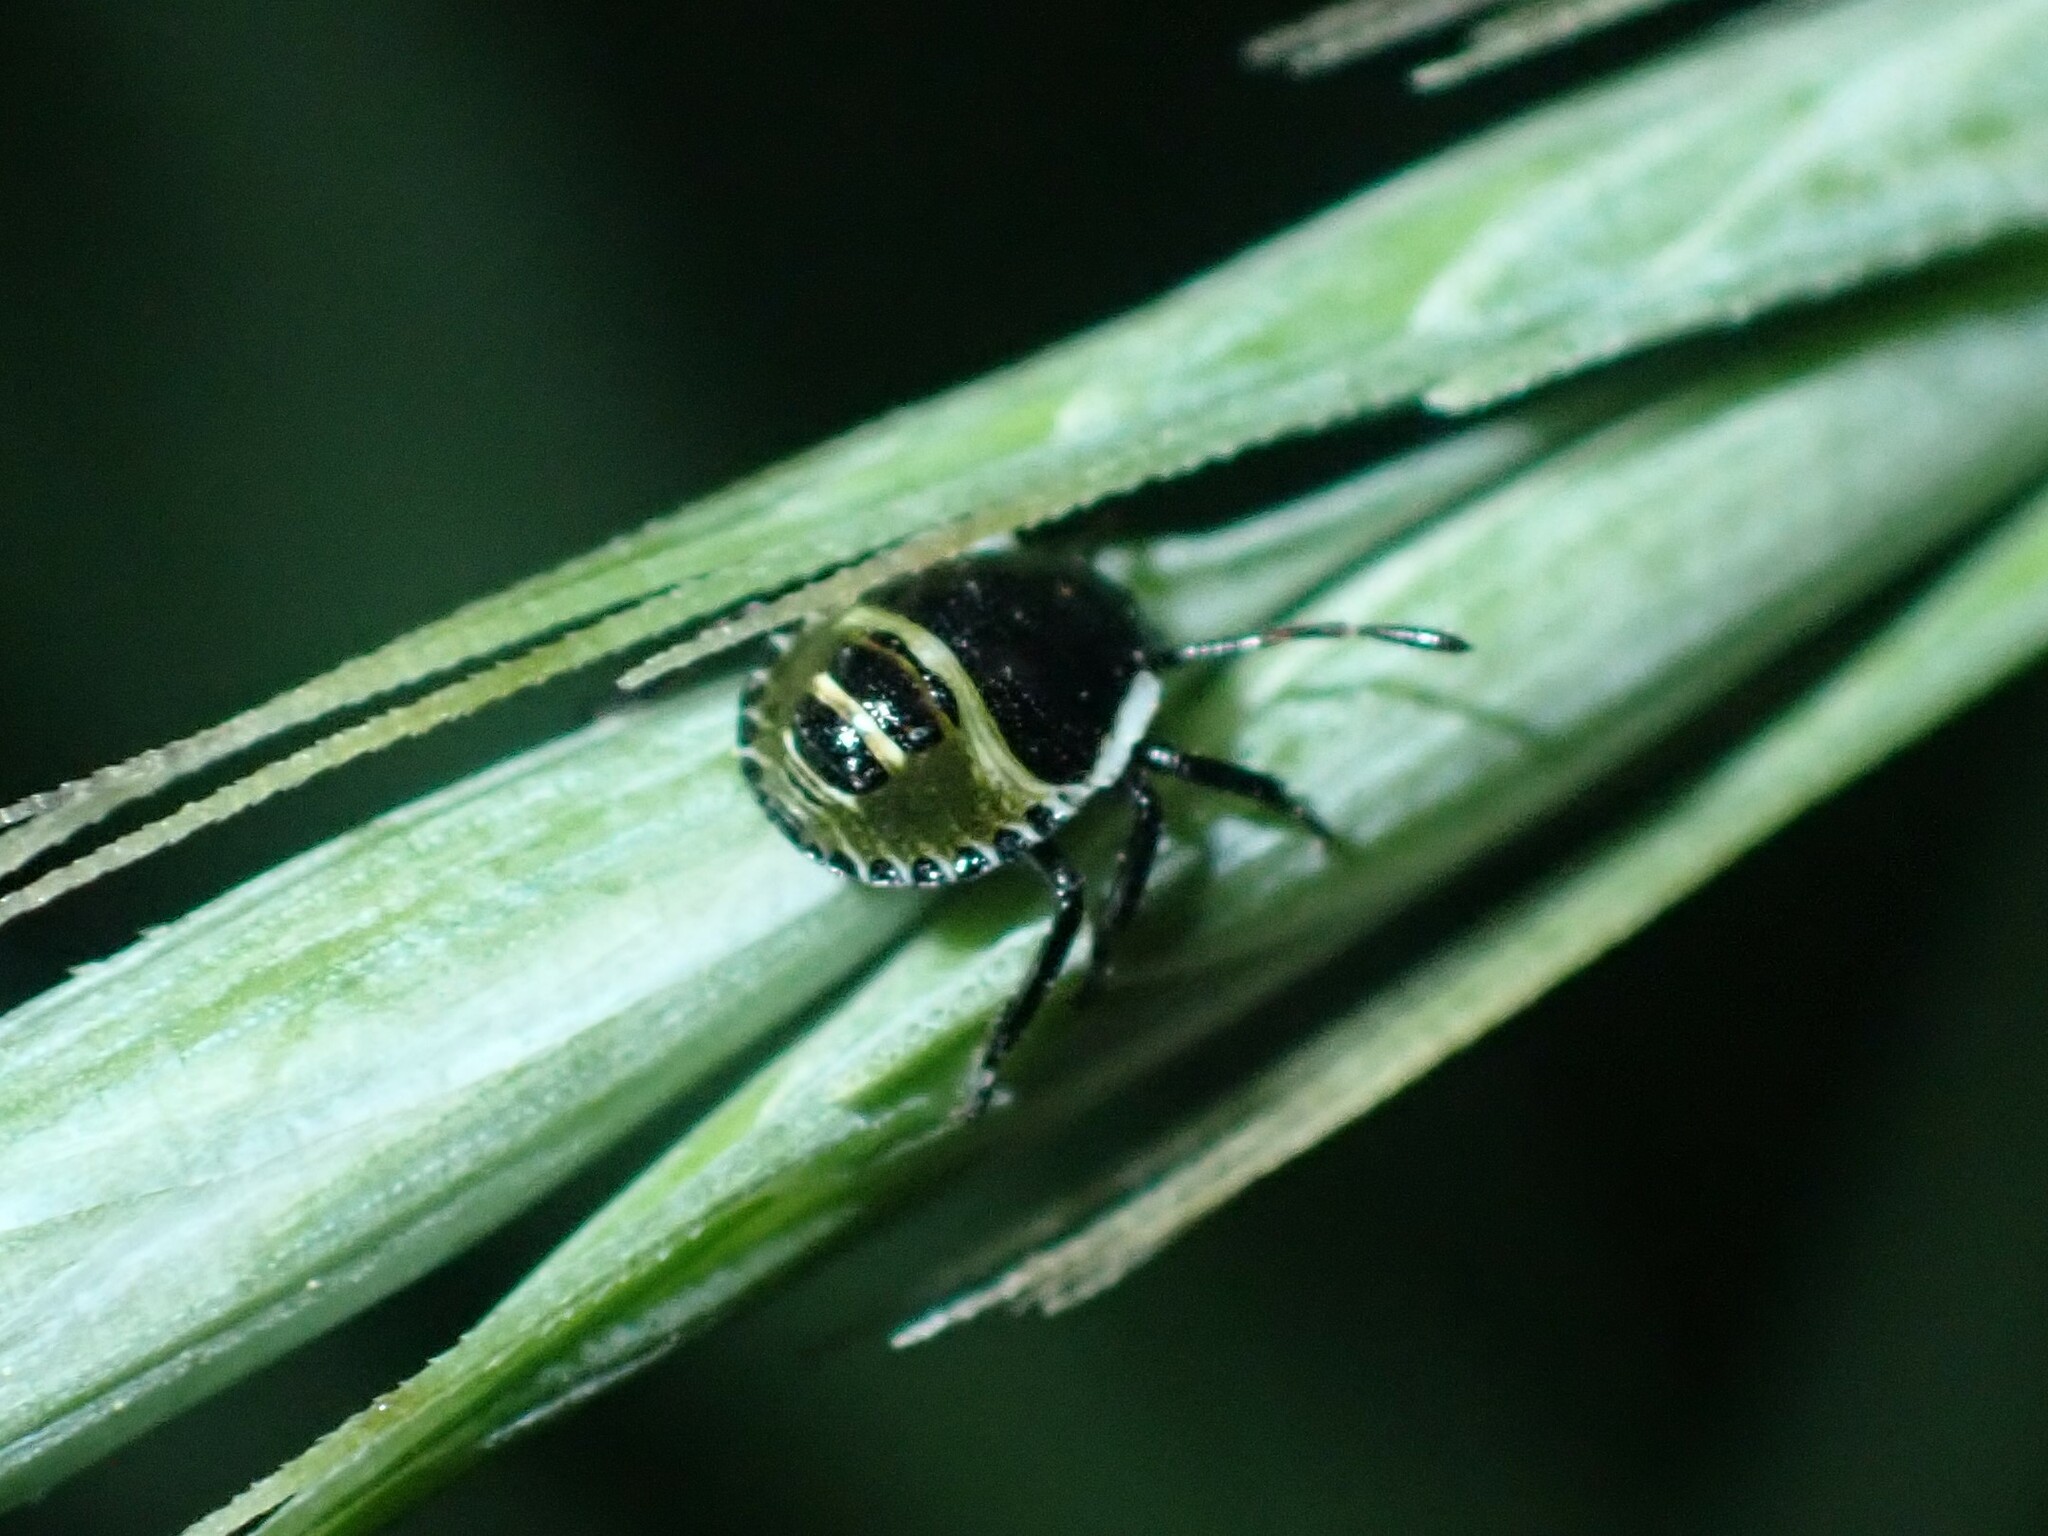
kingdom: Animalia
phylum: Arthropoda
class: Insecta
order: Hemiptera
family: Pentatomidae
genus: Palomena
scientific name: Palomena prasina
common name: Green shieldbug
